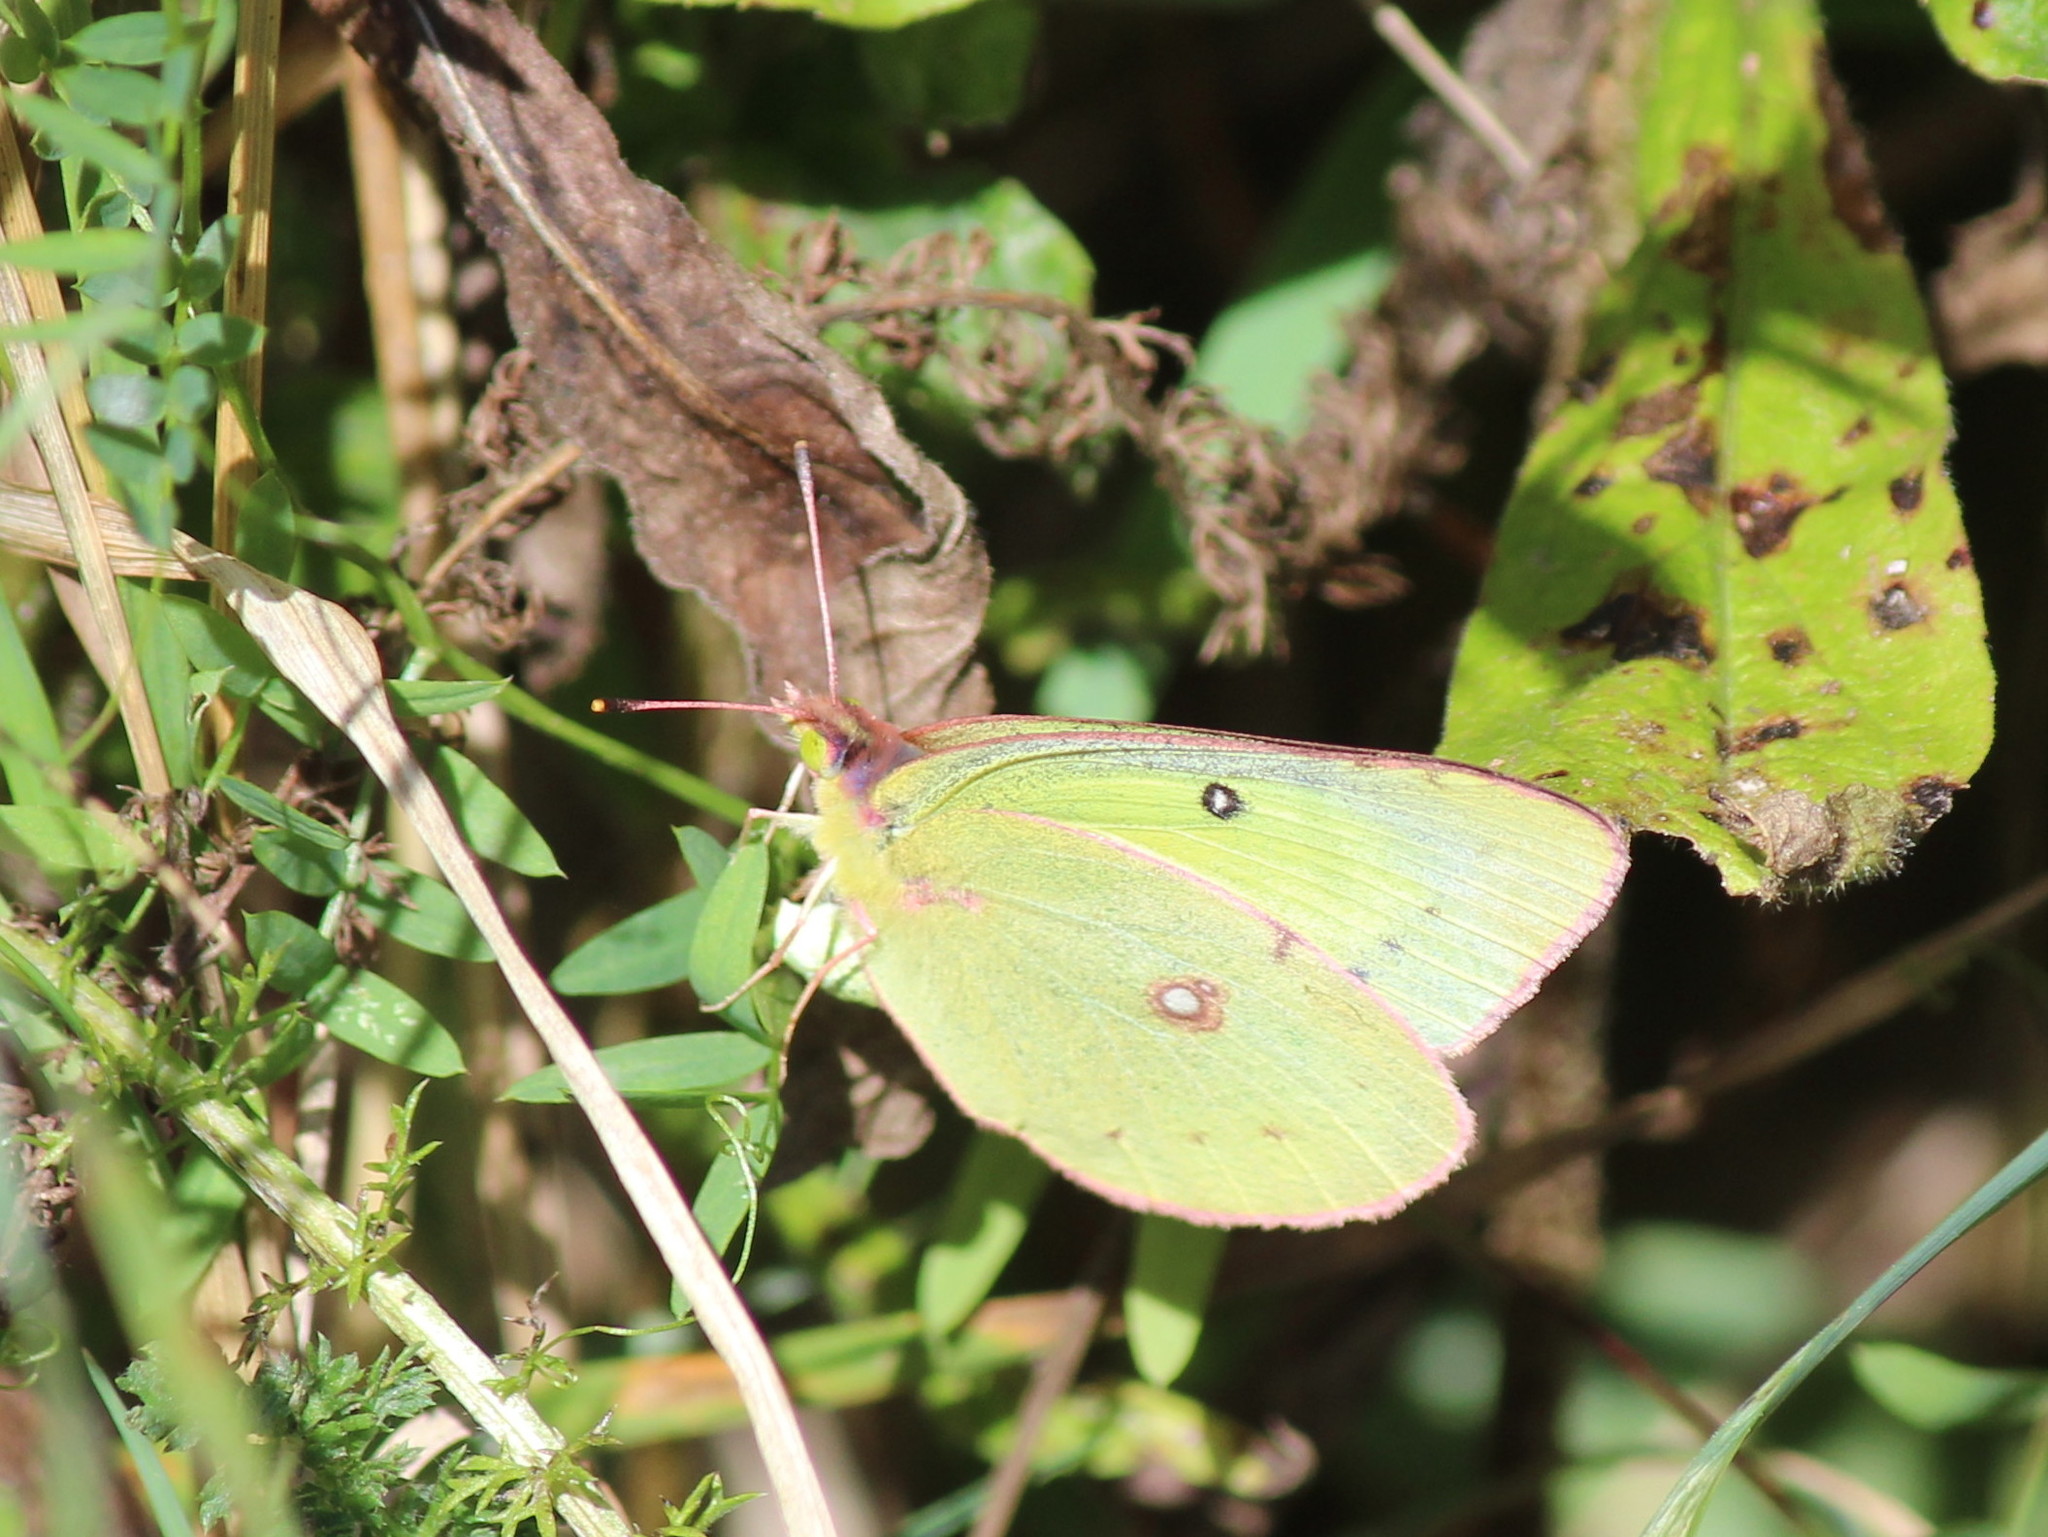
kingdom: Animalia
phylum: Arthropoda
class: Insecta
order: Lepidoptera
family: Pieridae
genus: Colias
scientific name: Colias philodice
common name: Clouded sulphur
